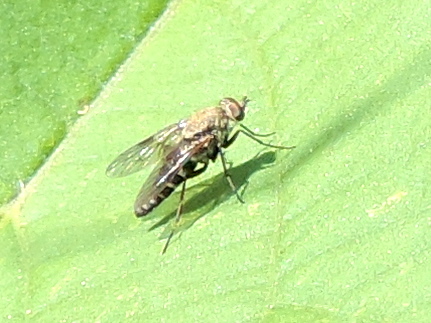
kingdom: Animalia
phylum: Arthropoda
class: Insecta
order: Diptera
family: Therevidae
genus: Brachylinga
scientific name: Brachylinga
